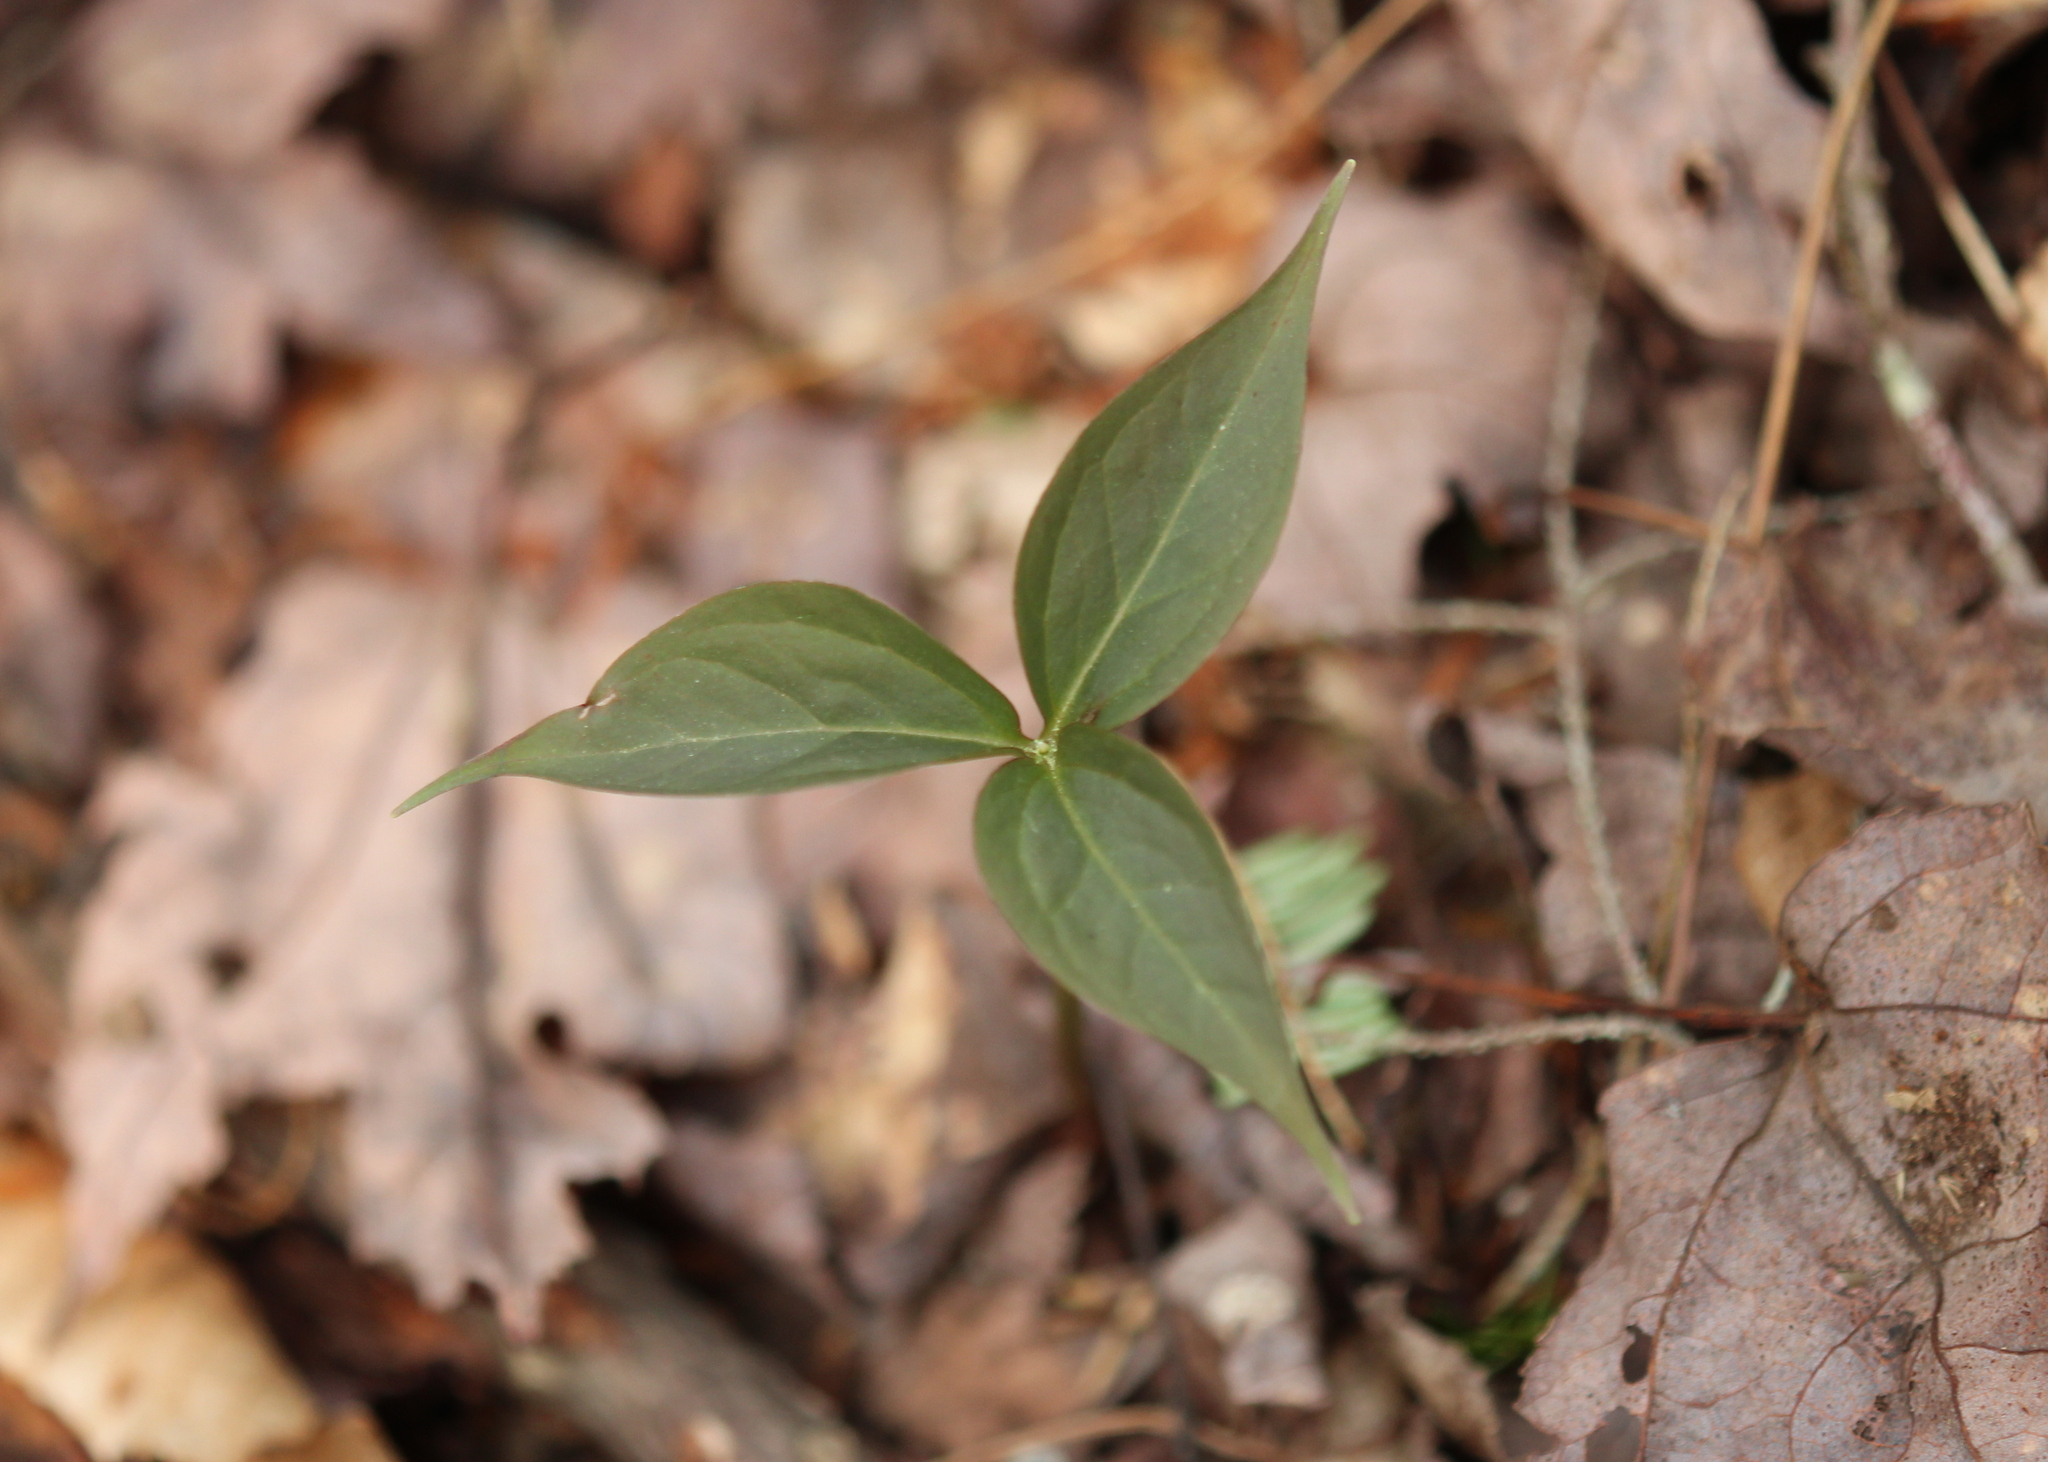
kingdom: Plantae
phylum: Tracheophyta
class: Liliopsida
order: Liliales
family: Melanthiaceae
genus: Trillium
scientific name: Trillium undulatum
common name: Paint trillium
